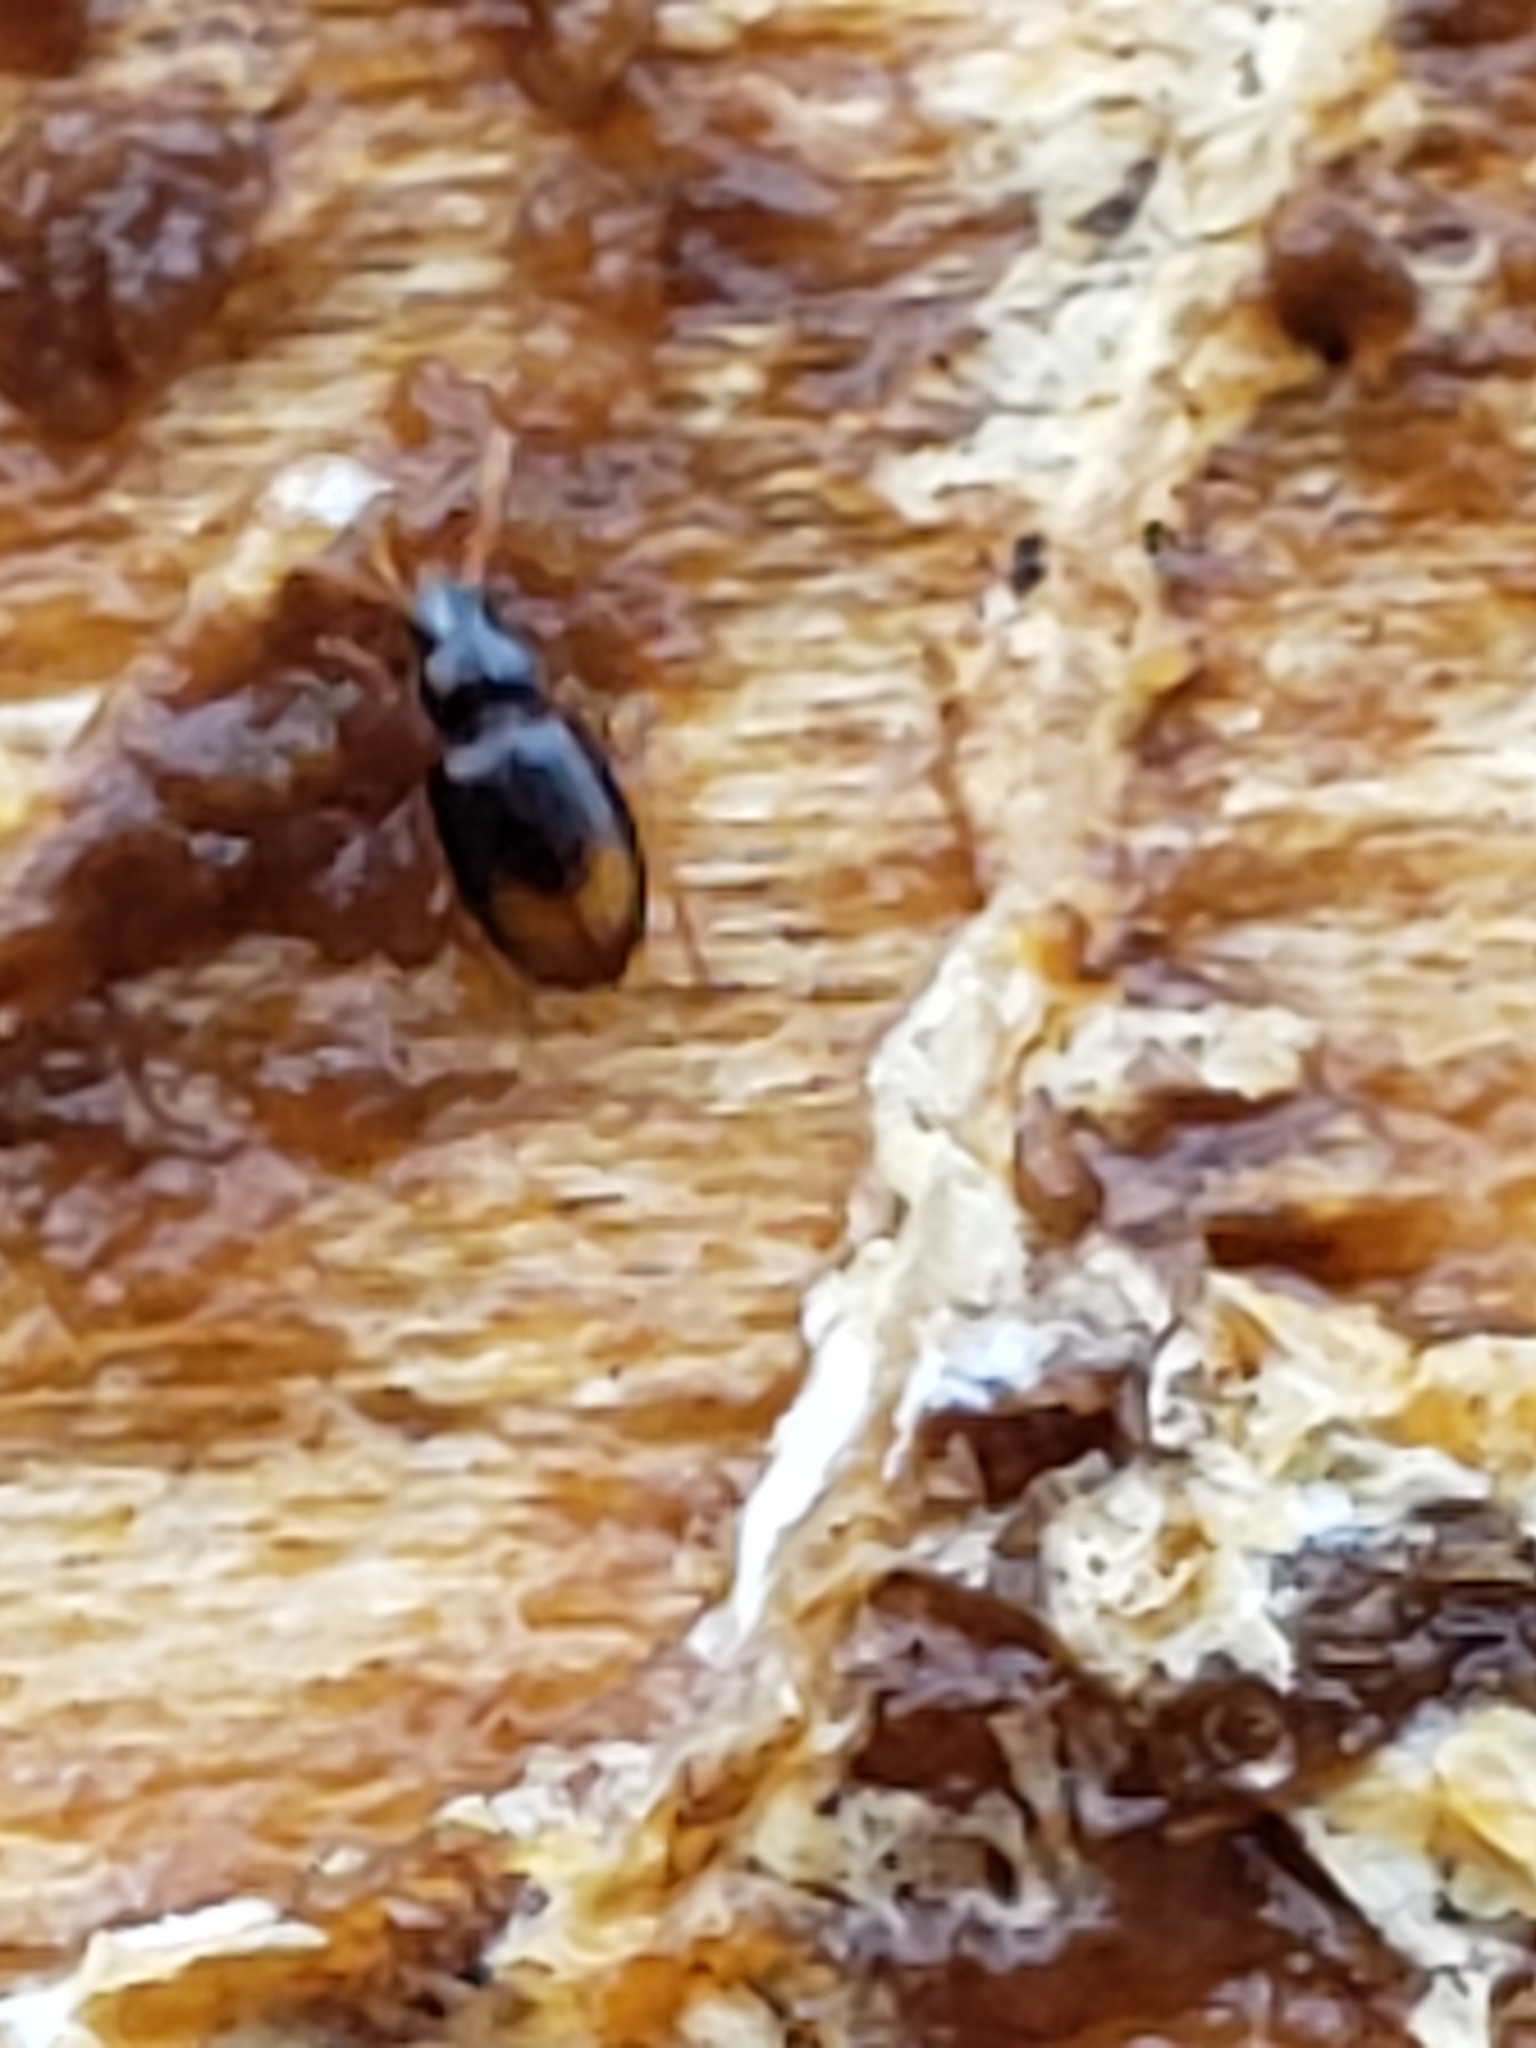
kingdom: Animalia
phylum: Arthropoda
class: Insecta
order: Coleoptera
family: Carabidae
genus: Mioptachys
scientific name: Mioptachys flavicauda
